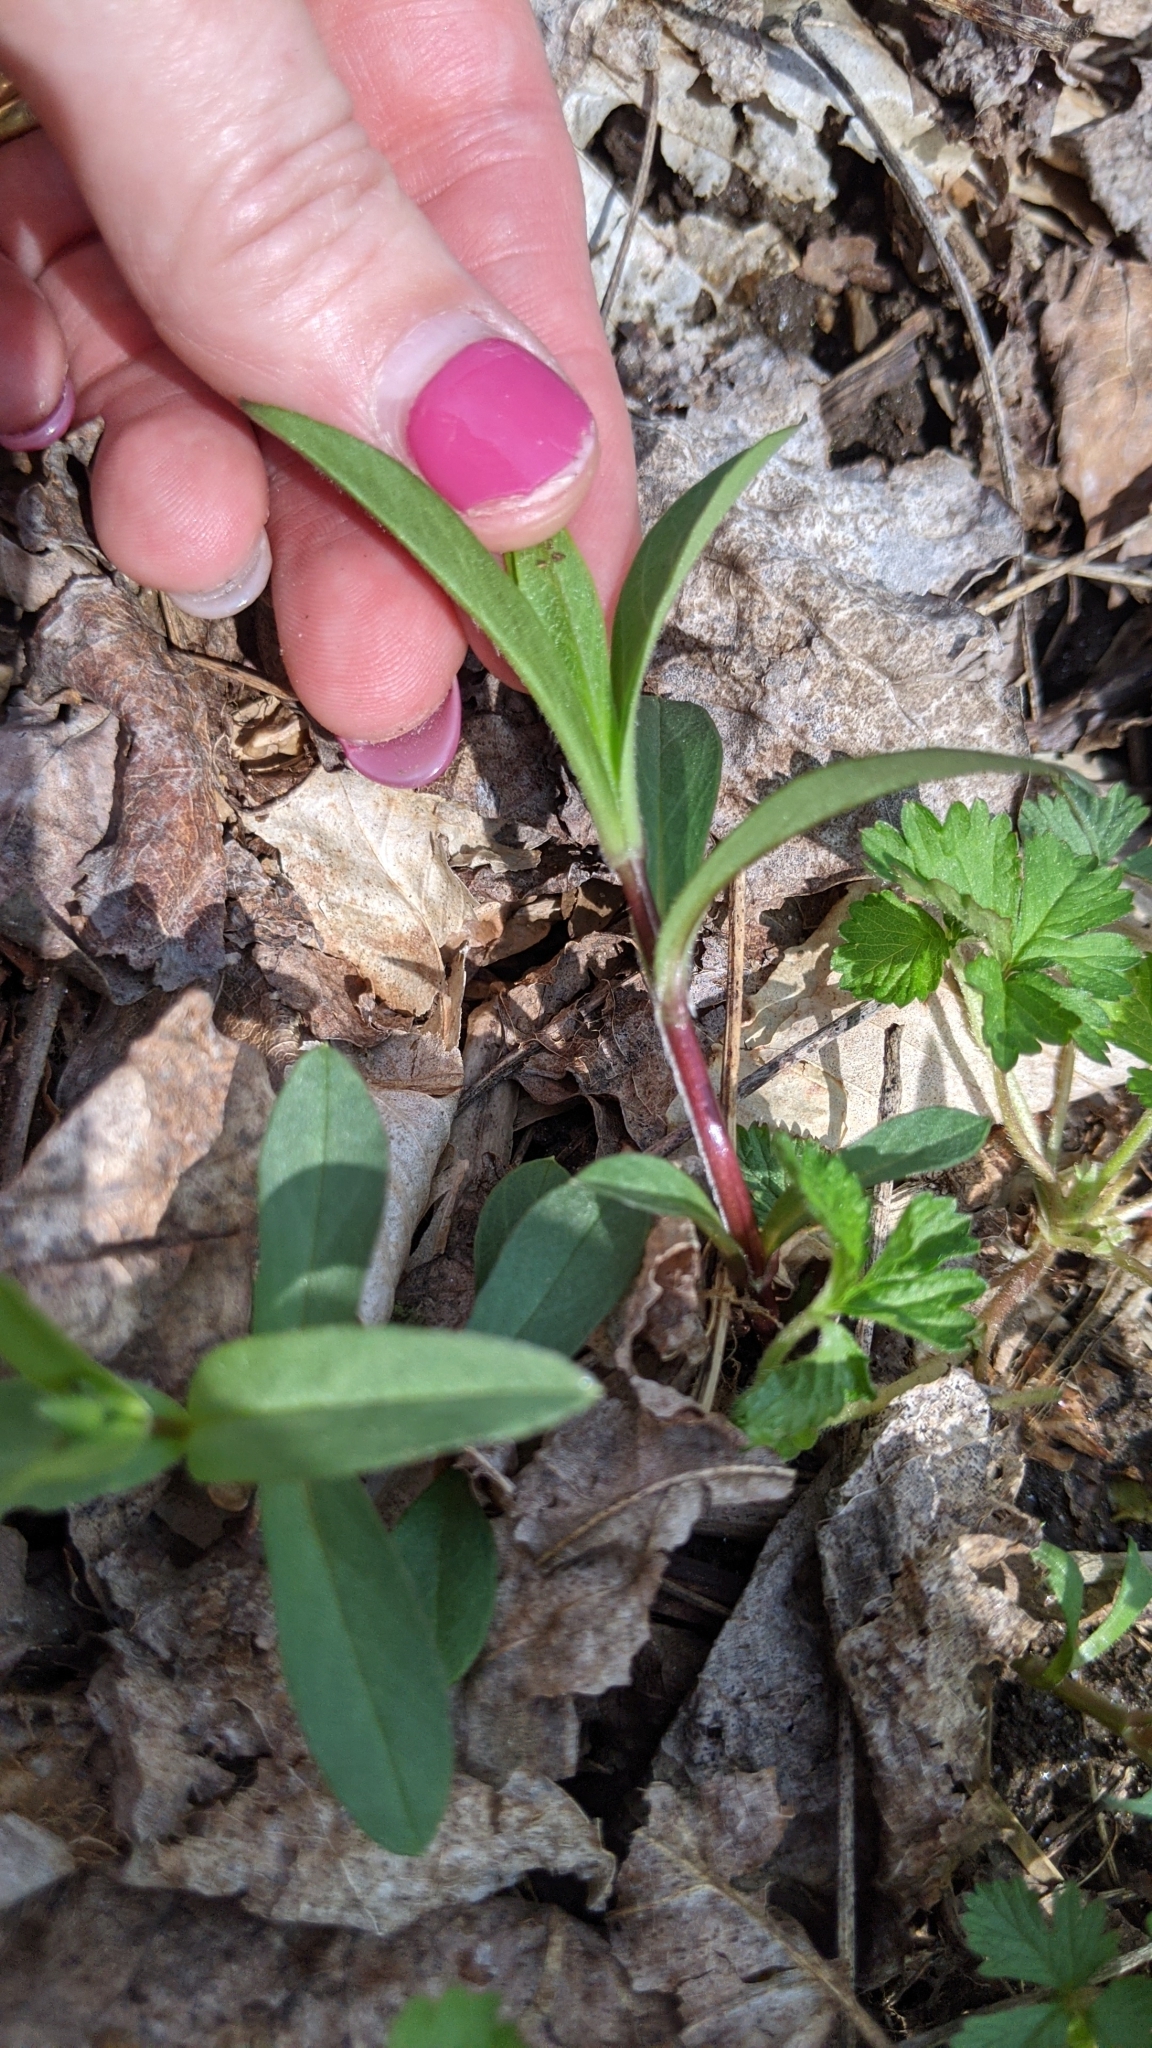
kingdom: Plantae
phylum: Tracheophyta
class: Magnoliopsida
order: Caryophyllales
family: Caryophyllaceae
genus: Stellaria
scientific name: Stellaria pubera
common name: Star chickweed
